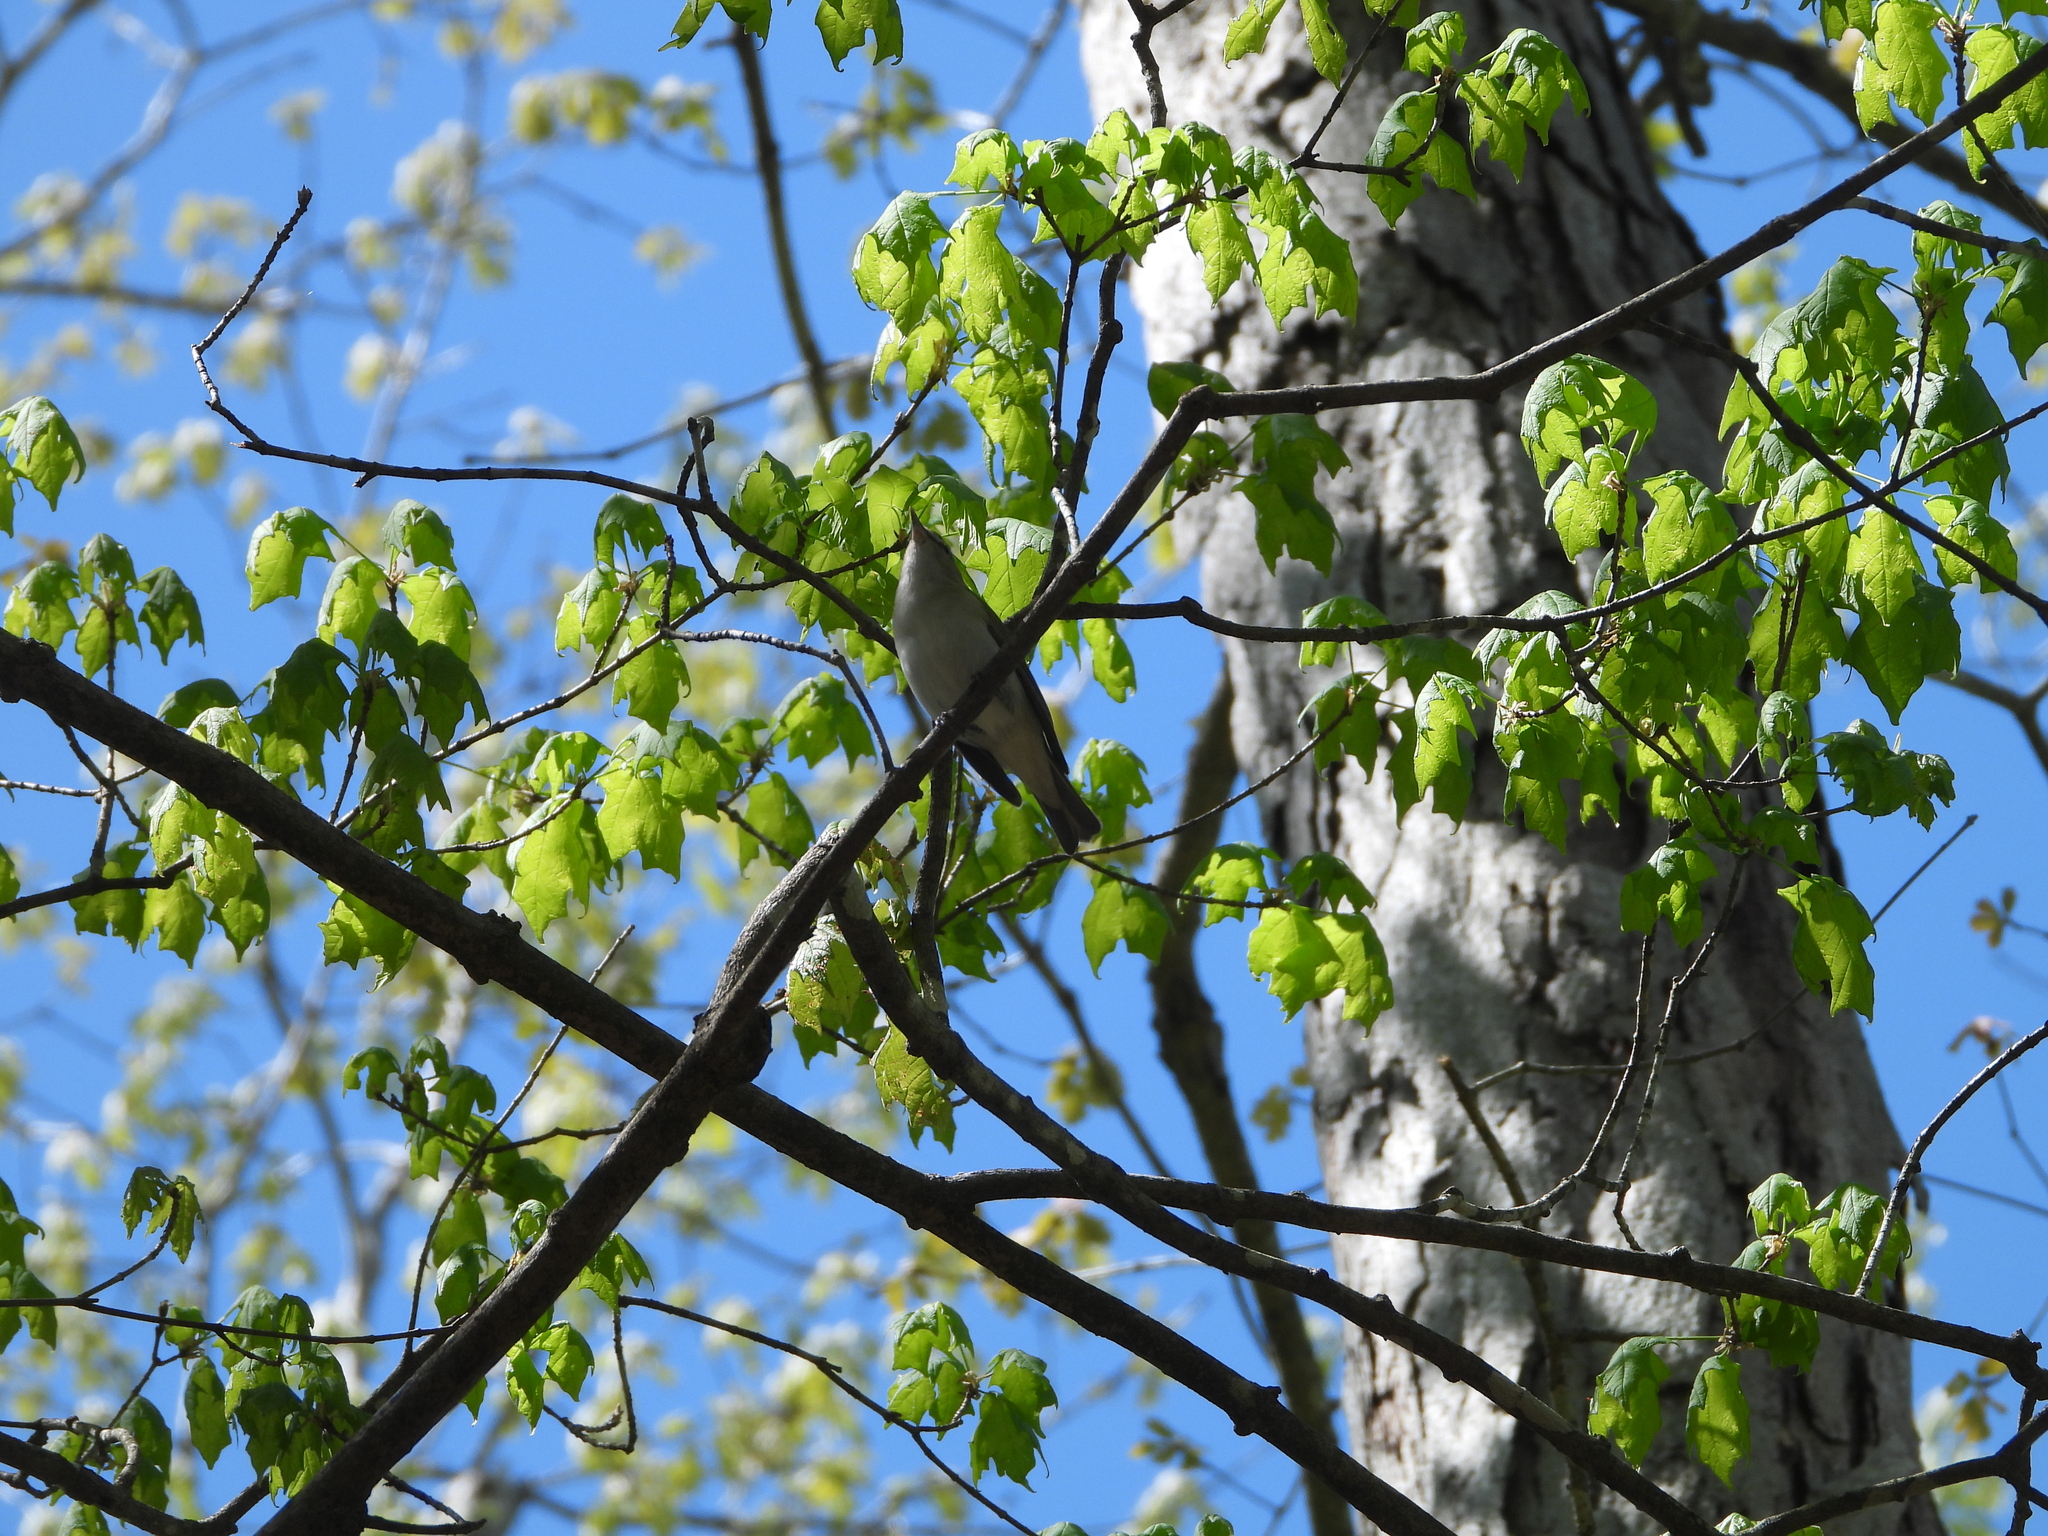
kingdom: Animalia
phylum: Chordata
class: Aves
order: Passeriformes
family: Vireonidae
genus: Vireo
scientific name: Vireo olivaceus
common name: Red-eyed vireo
